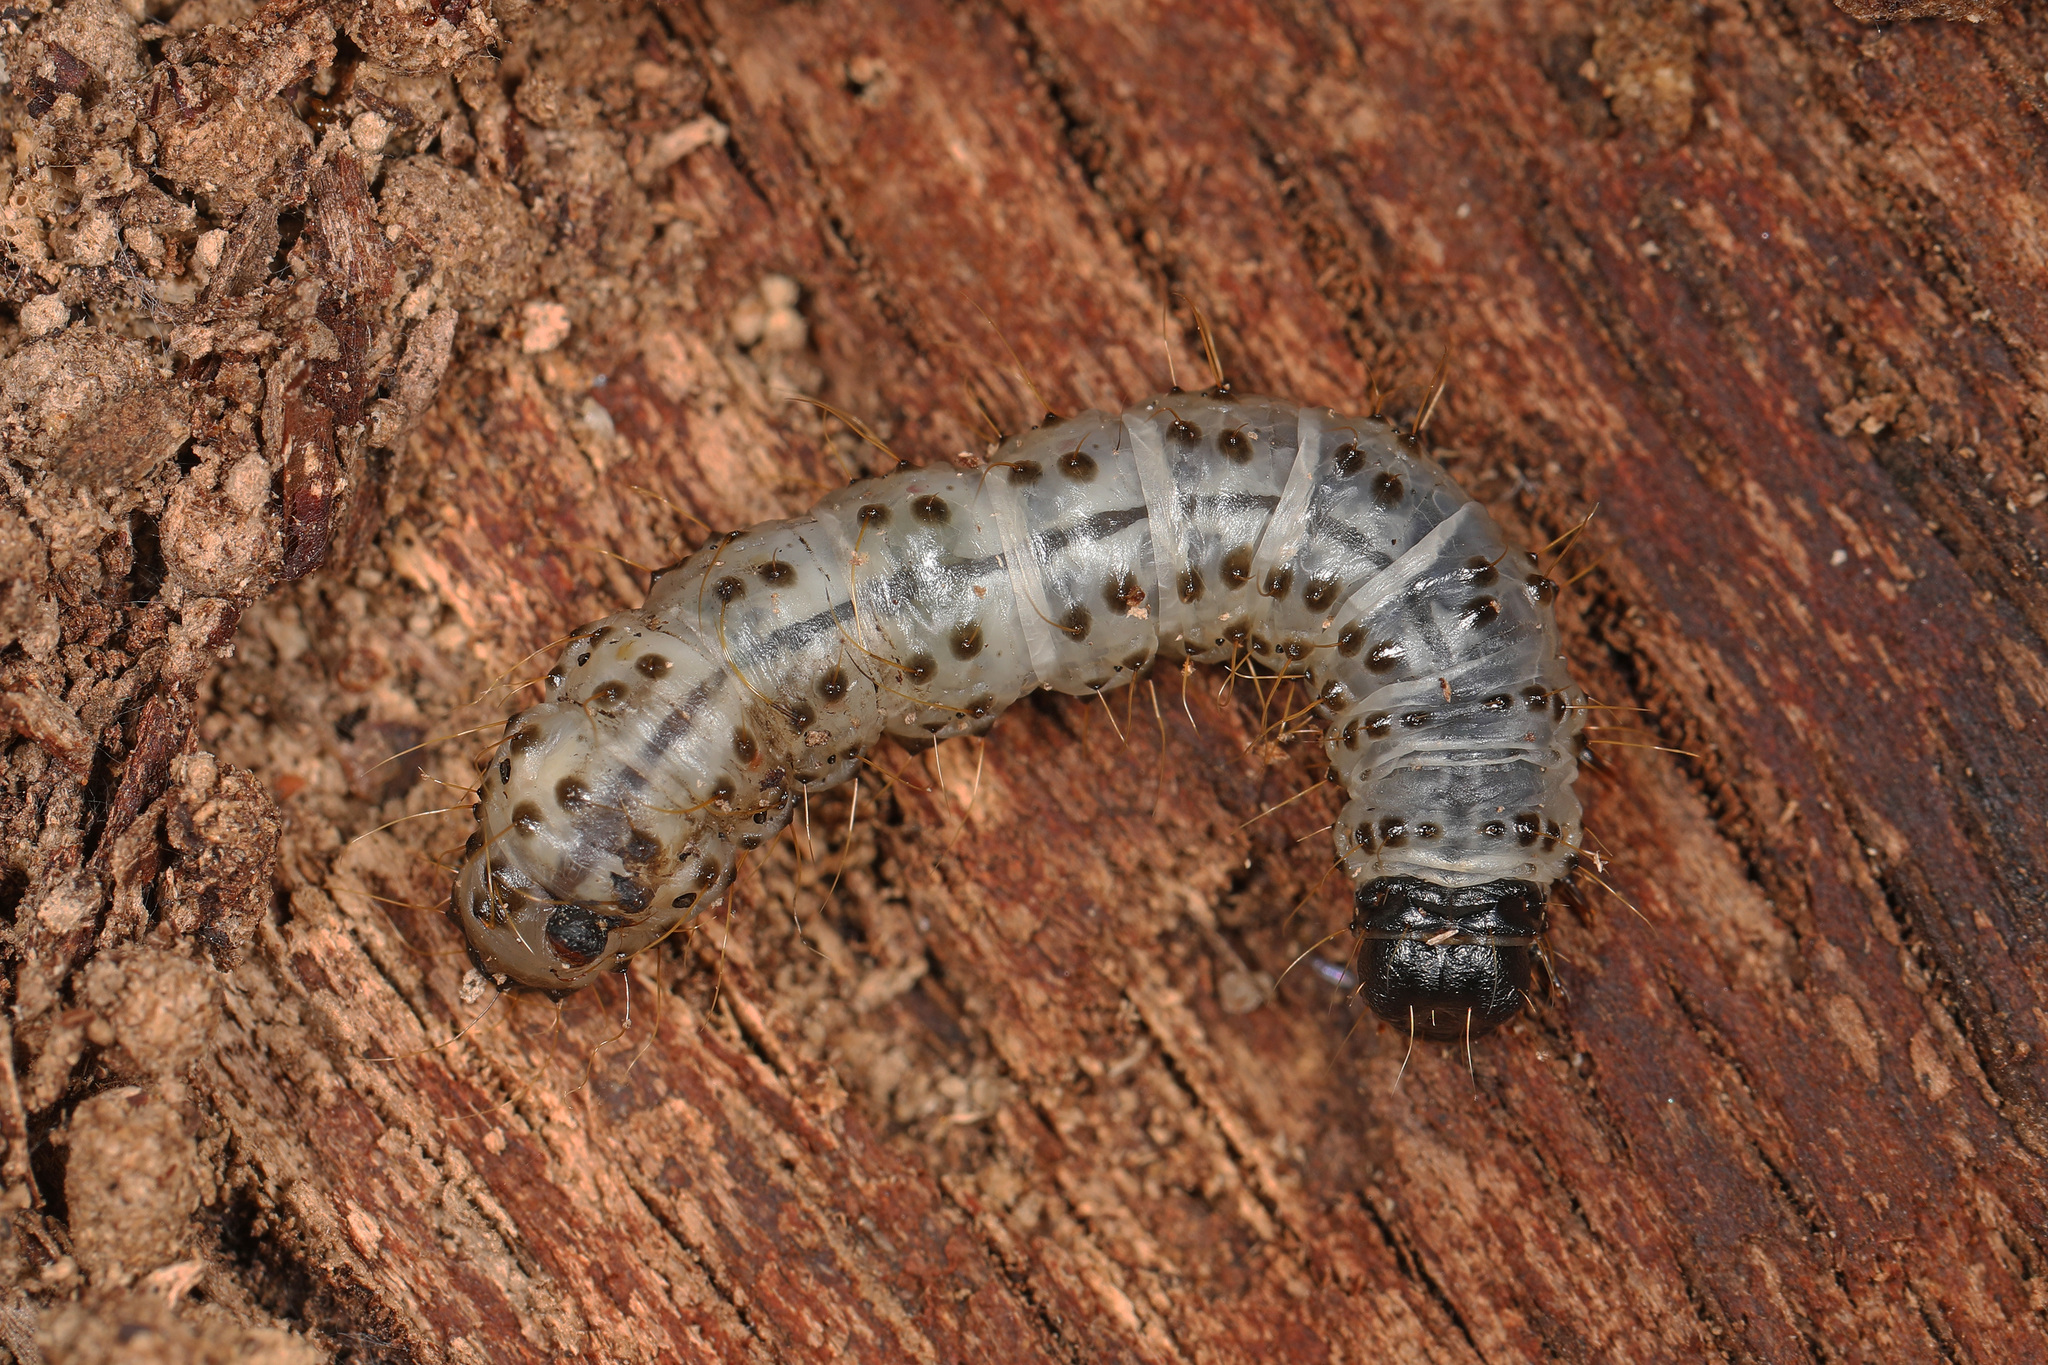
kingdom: Animalia
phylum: Arthropoda
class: Insecta
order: Lepidoptera
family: Erebidae
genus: Scolecocampa
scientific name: Scolecocampa liburna
